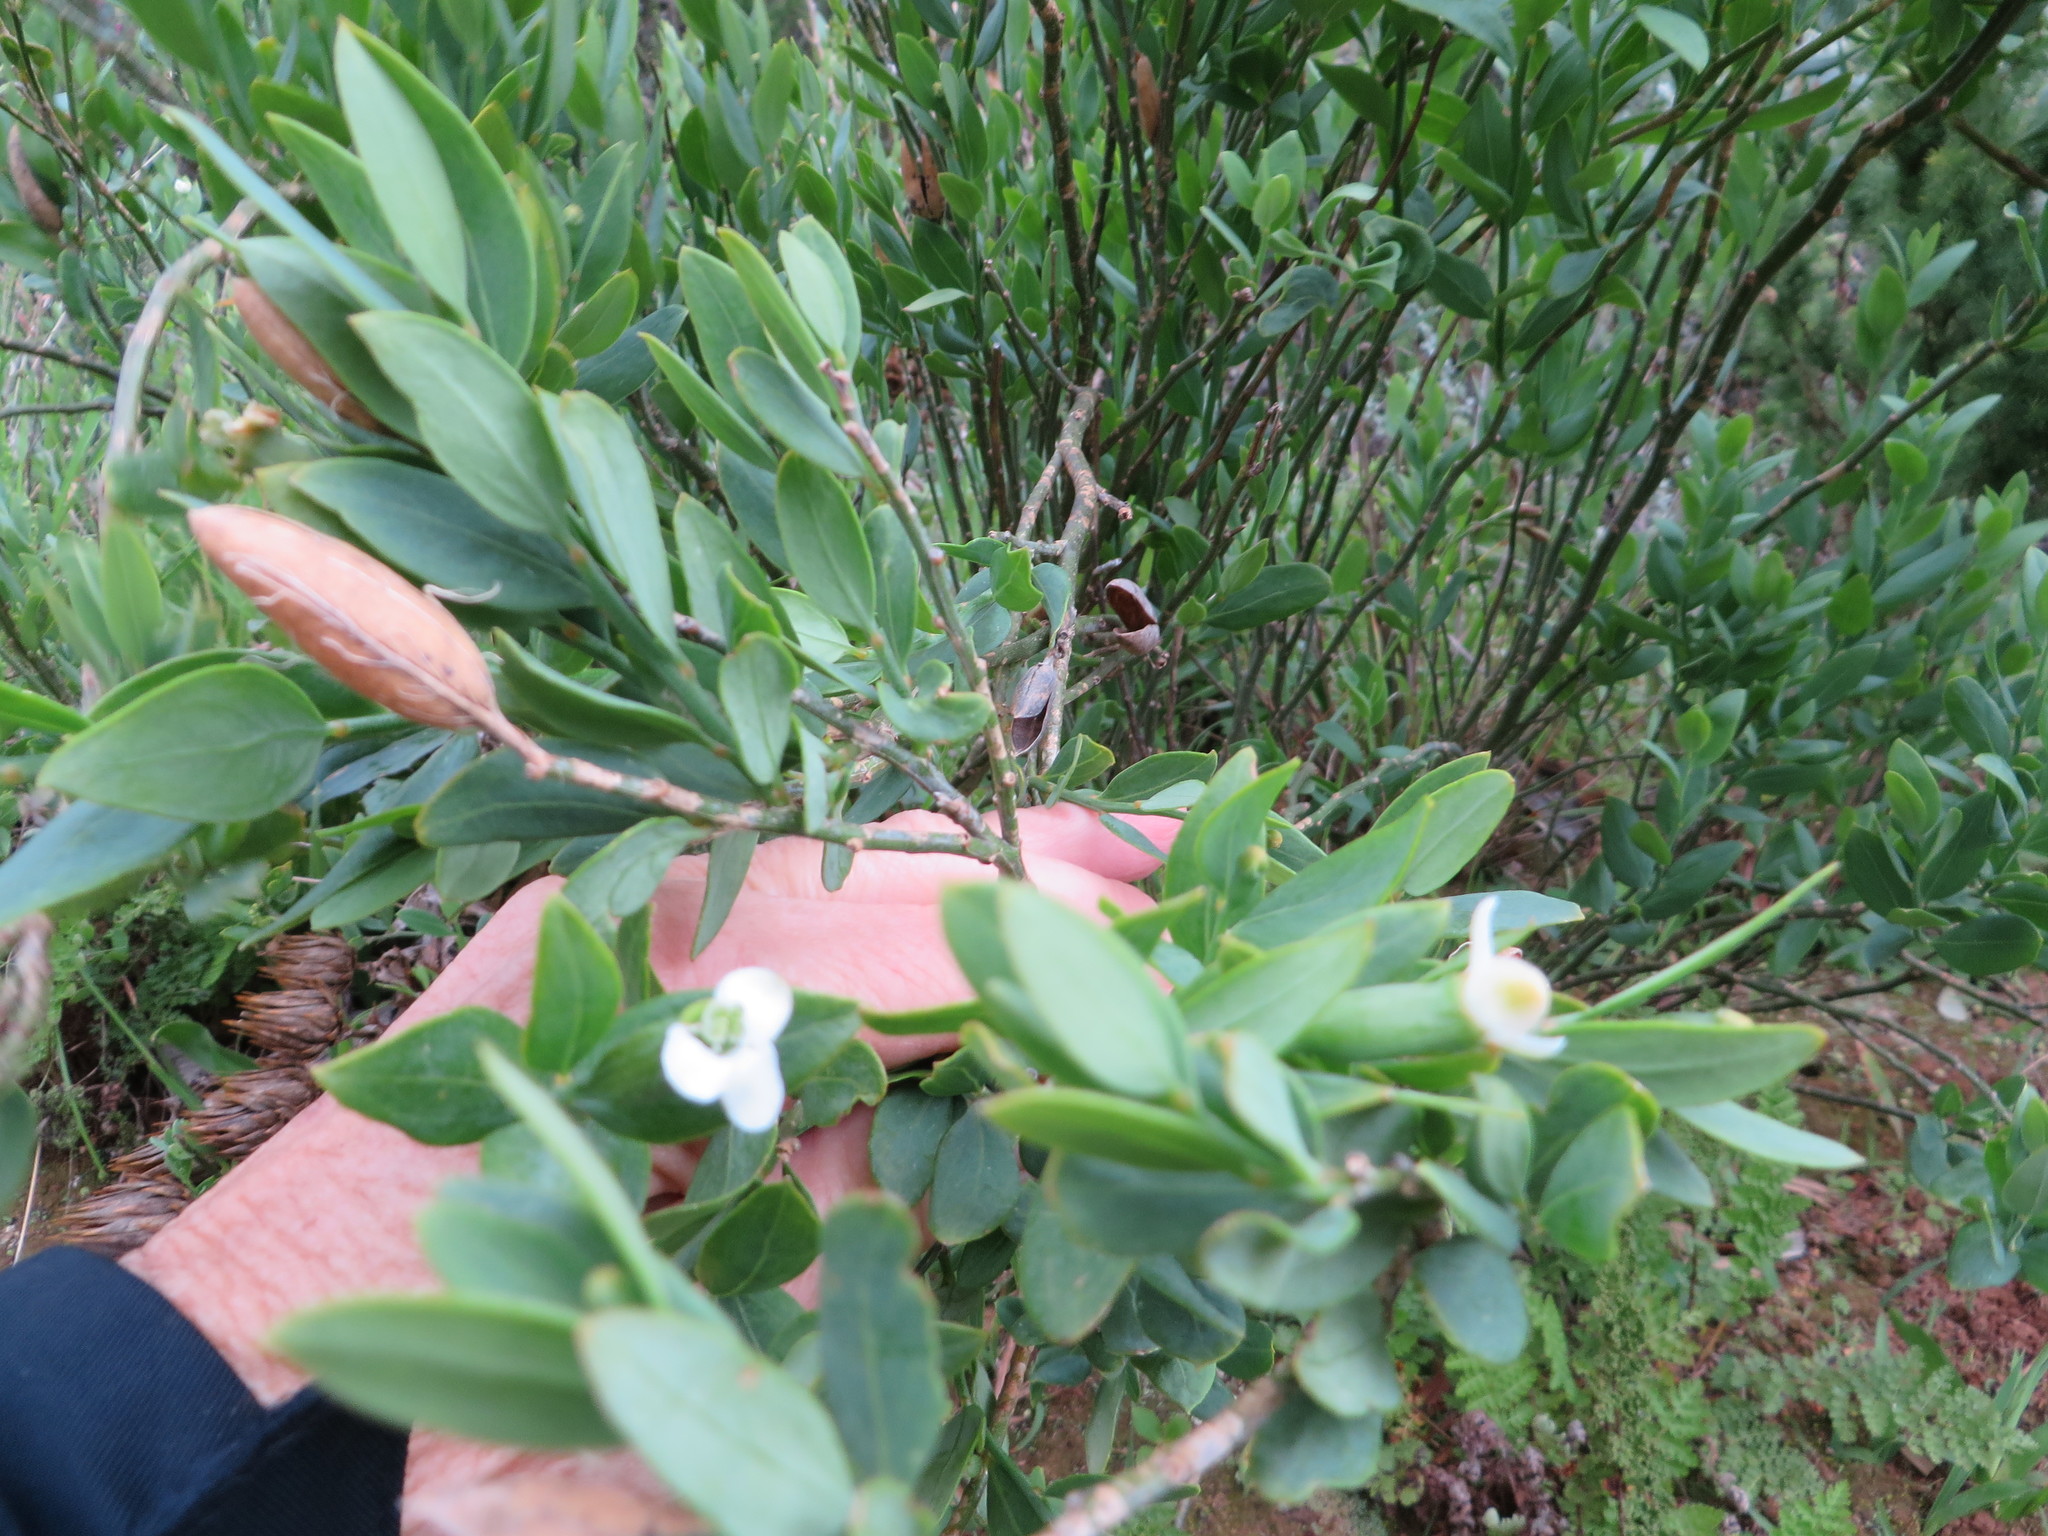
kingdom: Plantae
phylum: Tracheophyta
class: Magnoliopsida
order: Solanales
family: Montiniaceae
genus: Montinia
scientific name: Montinia caryophyllacea
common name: Wild clove-bush
